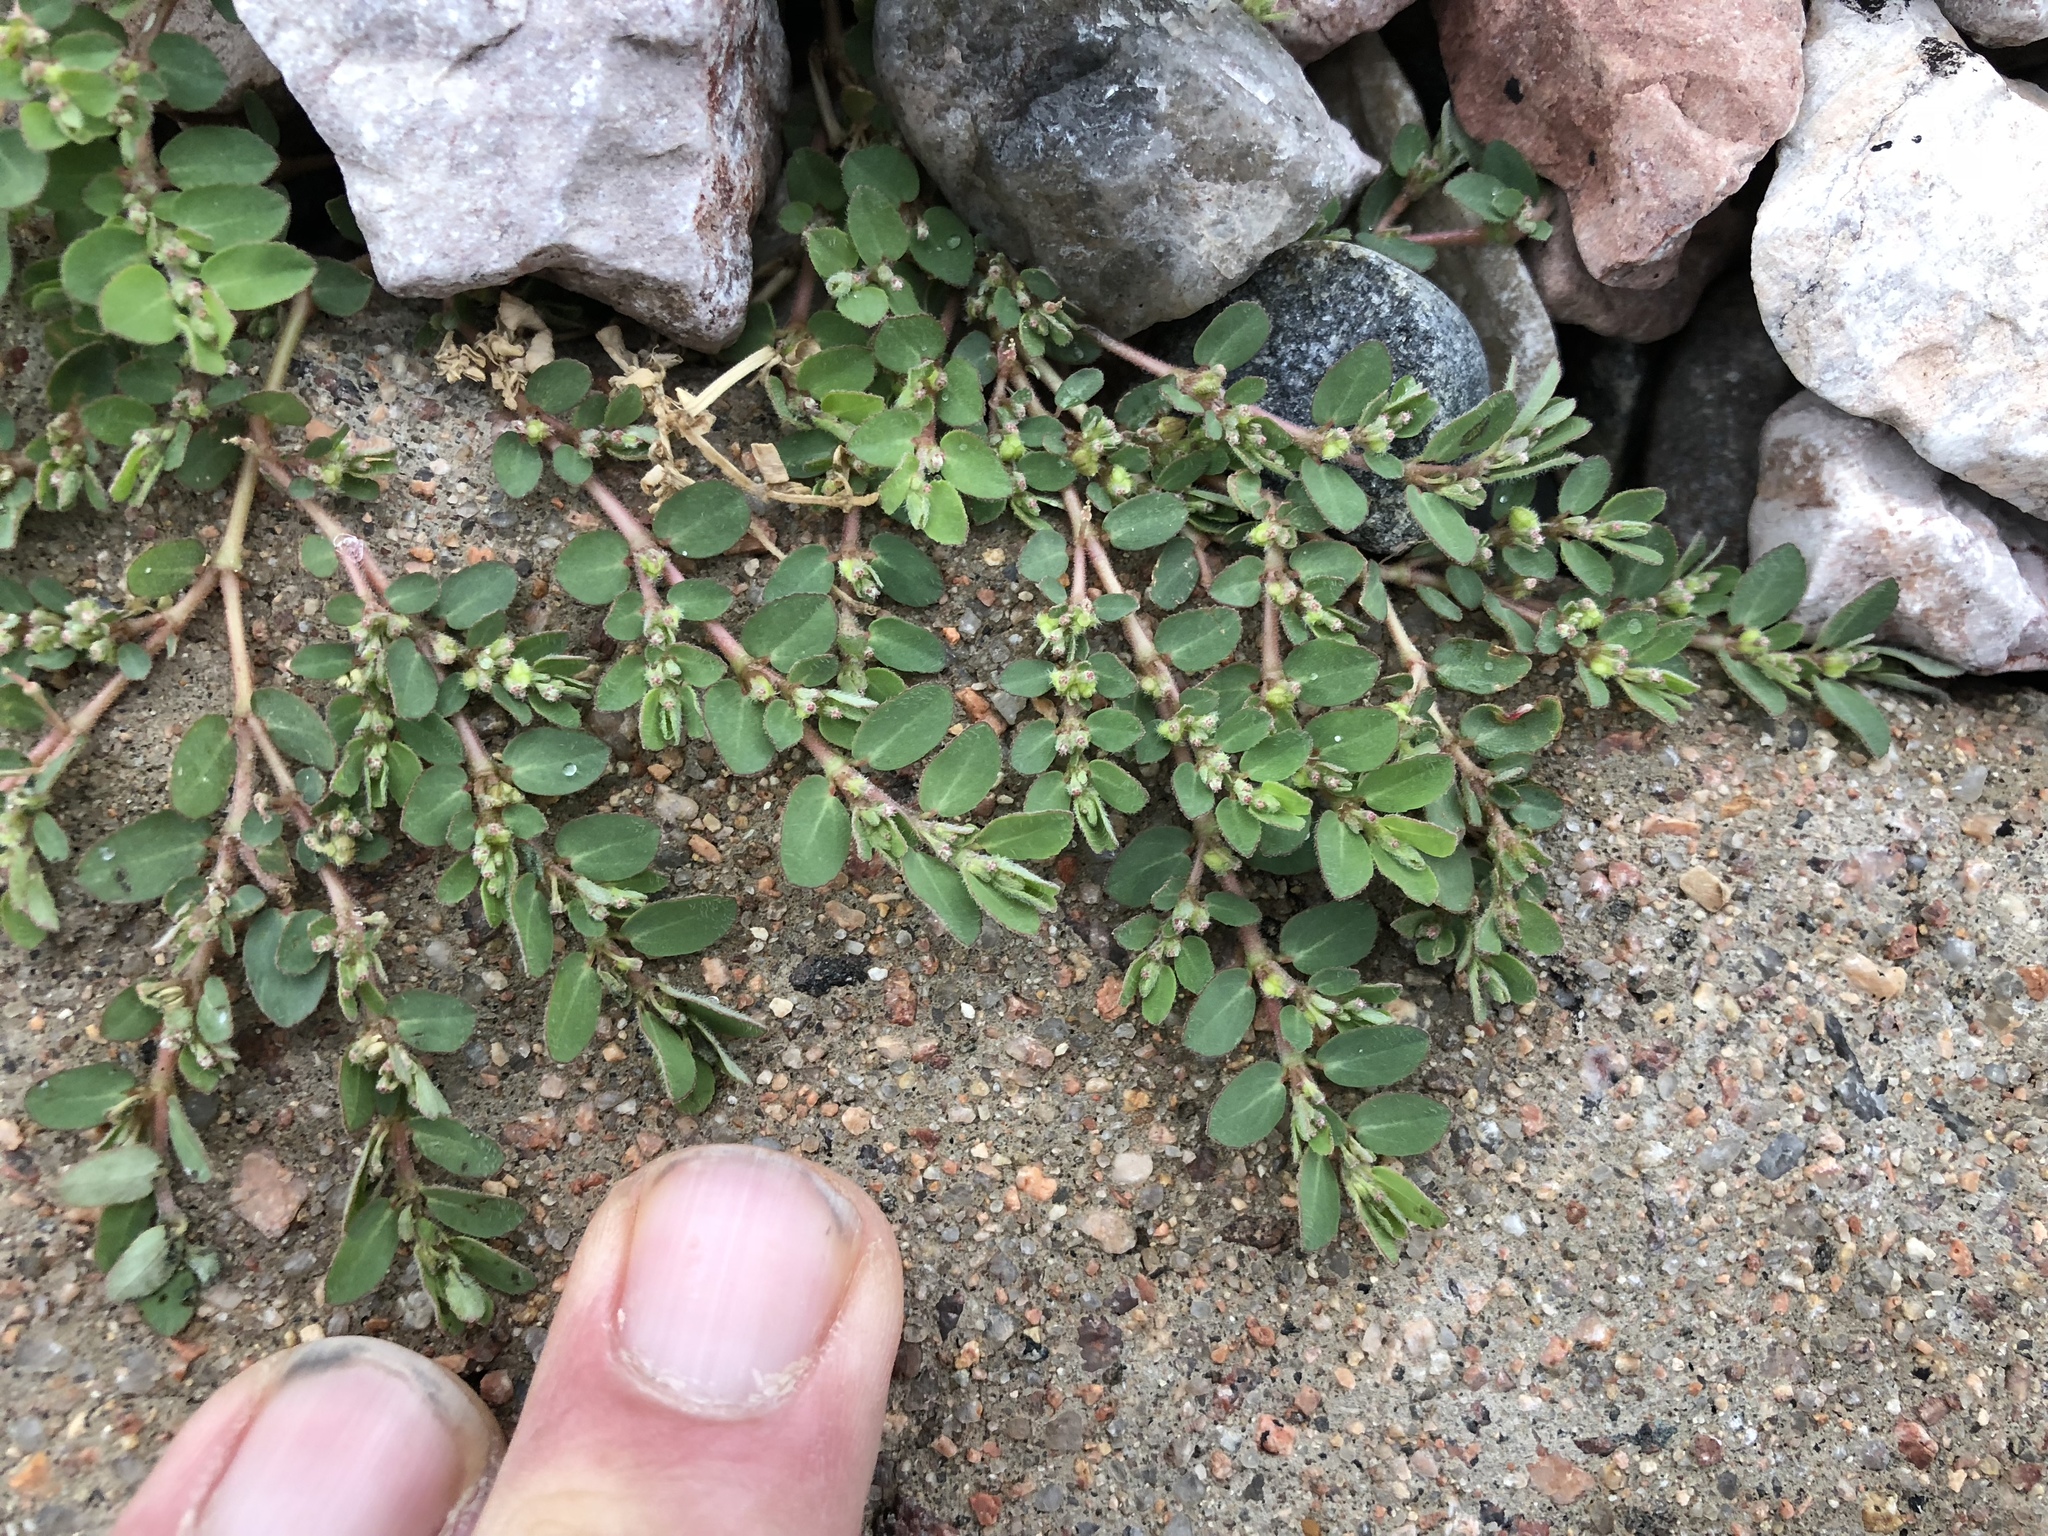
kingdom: Plantae
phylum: Tracheophyta
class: Magnoliopsida
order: Malpighiales
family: Euphorbiaceae
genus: Euphorbia
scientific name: Euphorbia prostrata
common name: Prostrate sandmat
